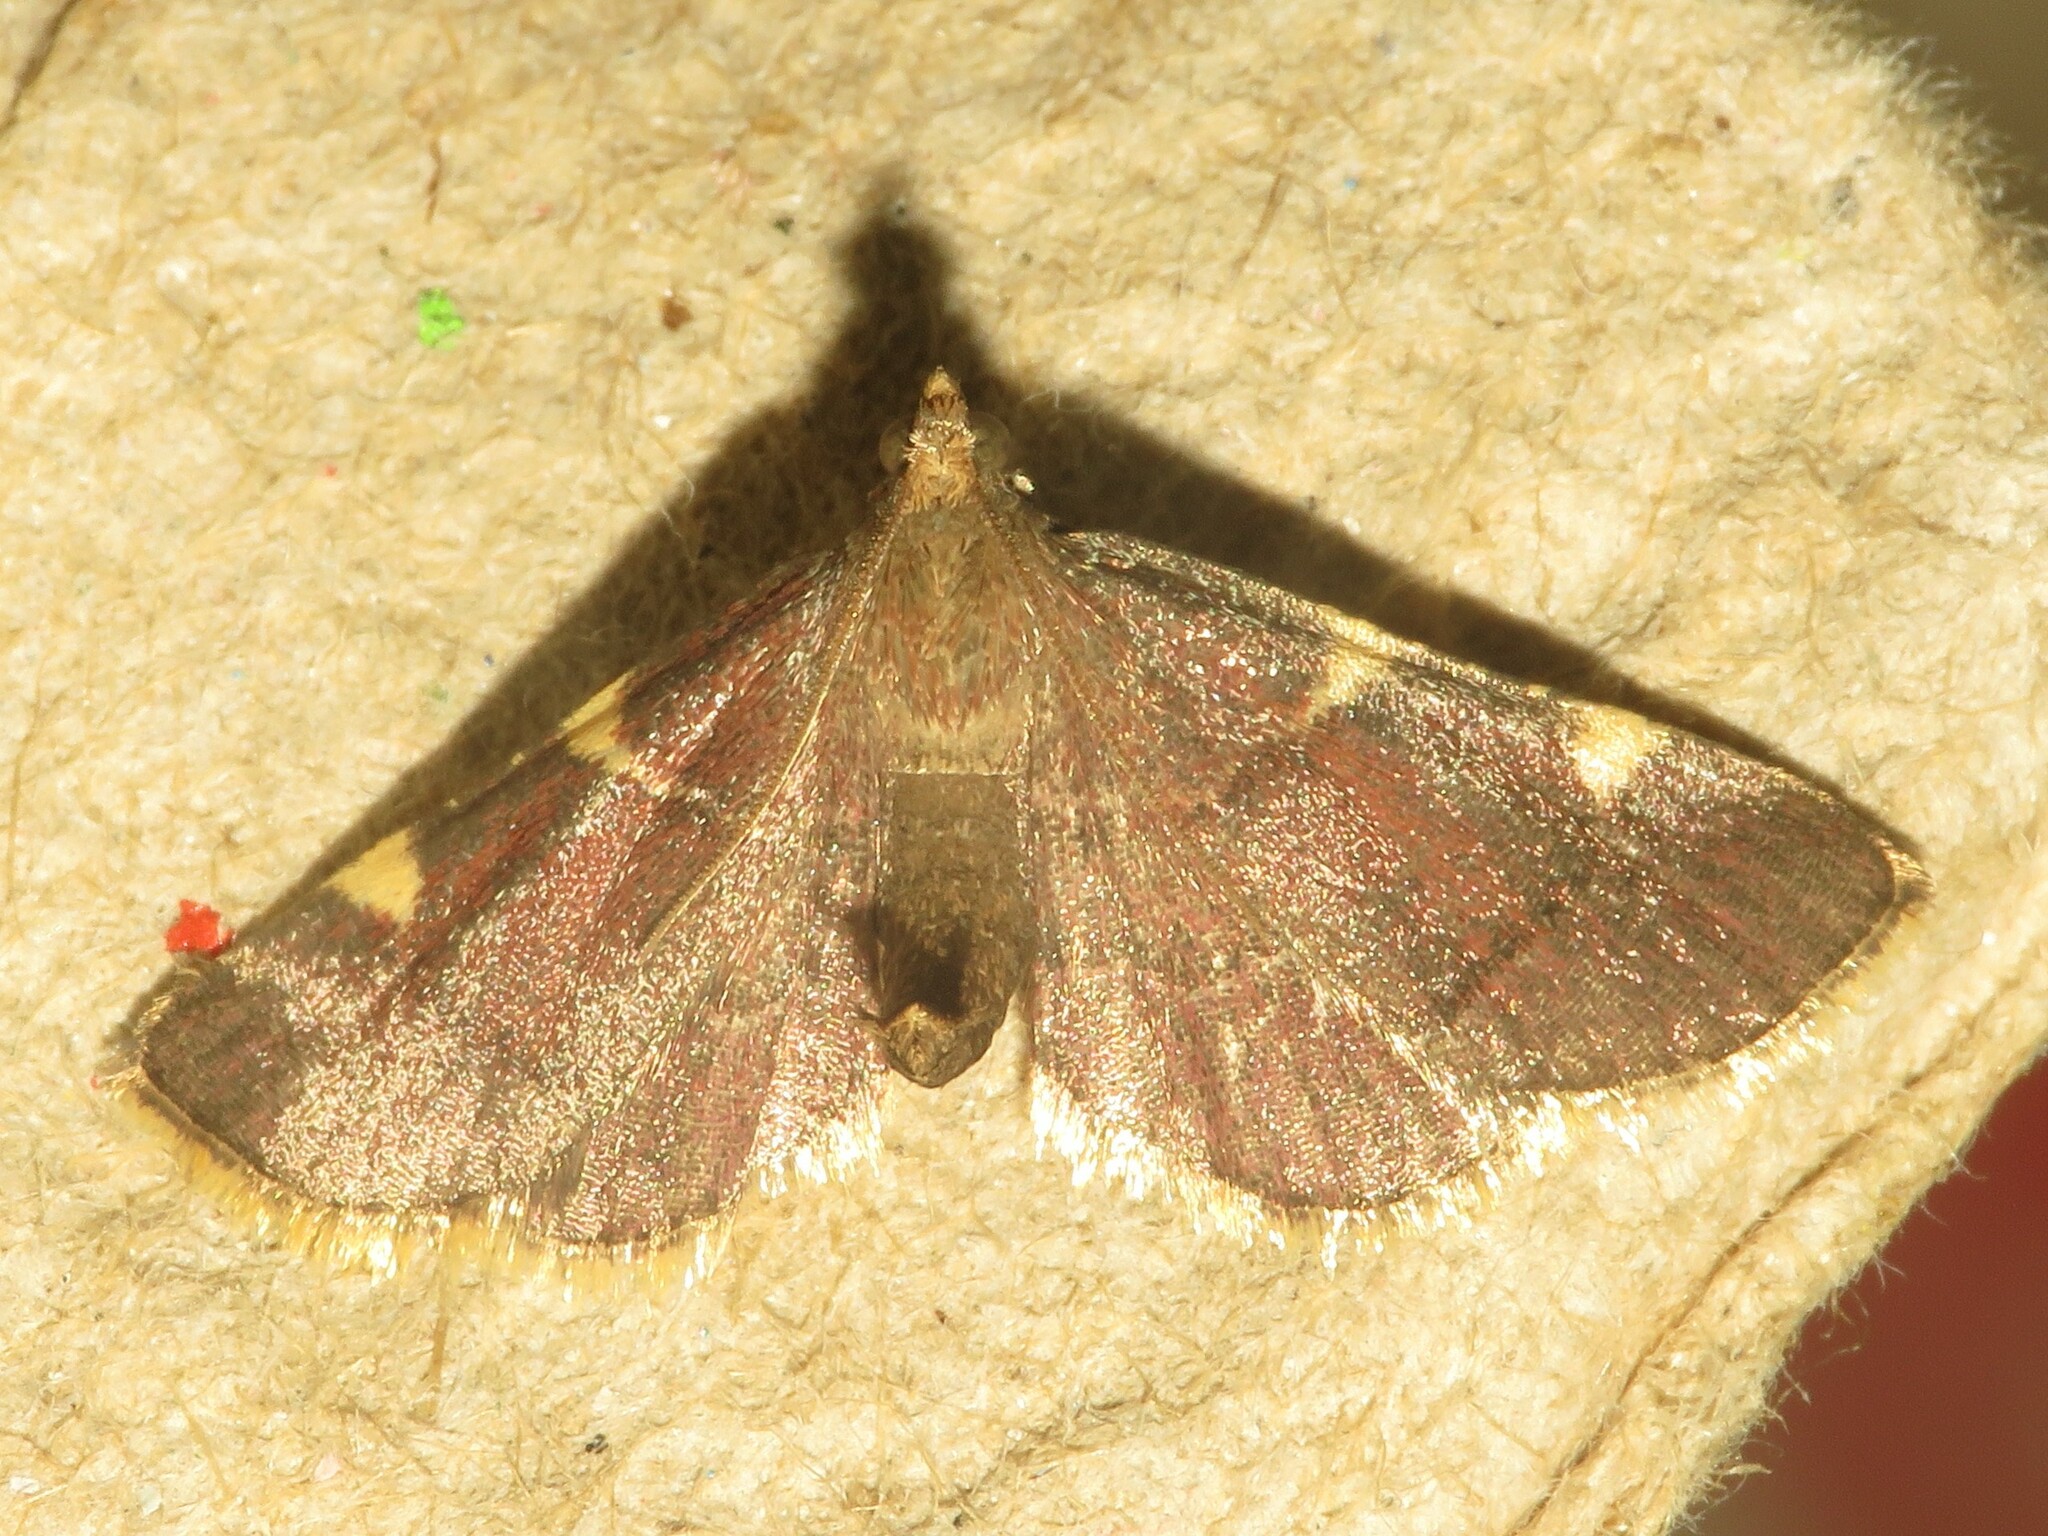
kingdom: Animalia
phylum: Arthropoda
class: Insecta
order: Lepidoptera
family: Pyralidae
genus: Hypsopygia
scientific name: Hypsopygia olinalis
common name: Yellow-fringed dolichomia moth
